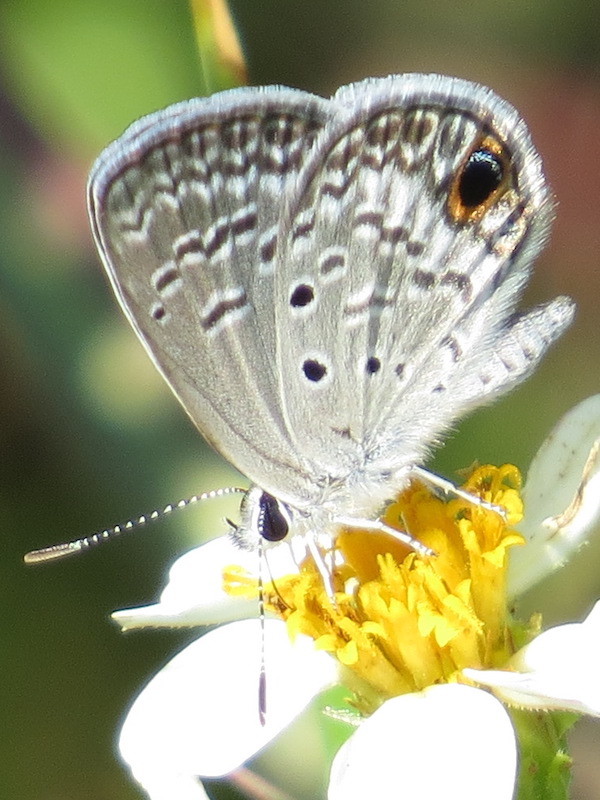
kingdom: Animalia
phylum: Arthropoda
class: Insecta
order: Lepidoptera
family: Lycaenidae
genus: Hemiargus
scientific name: Hemiargus ceraunus
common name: Ceraunus blue
